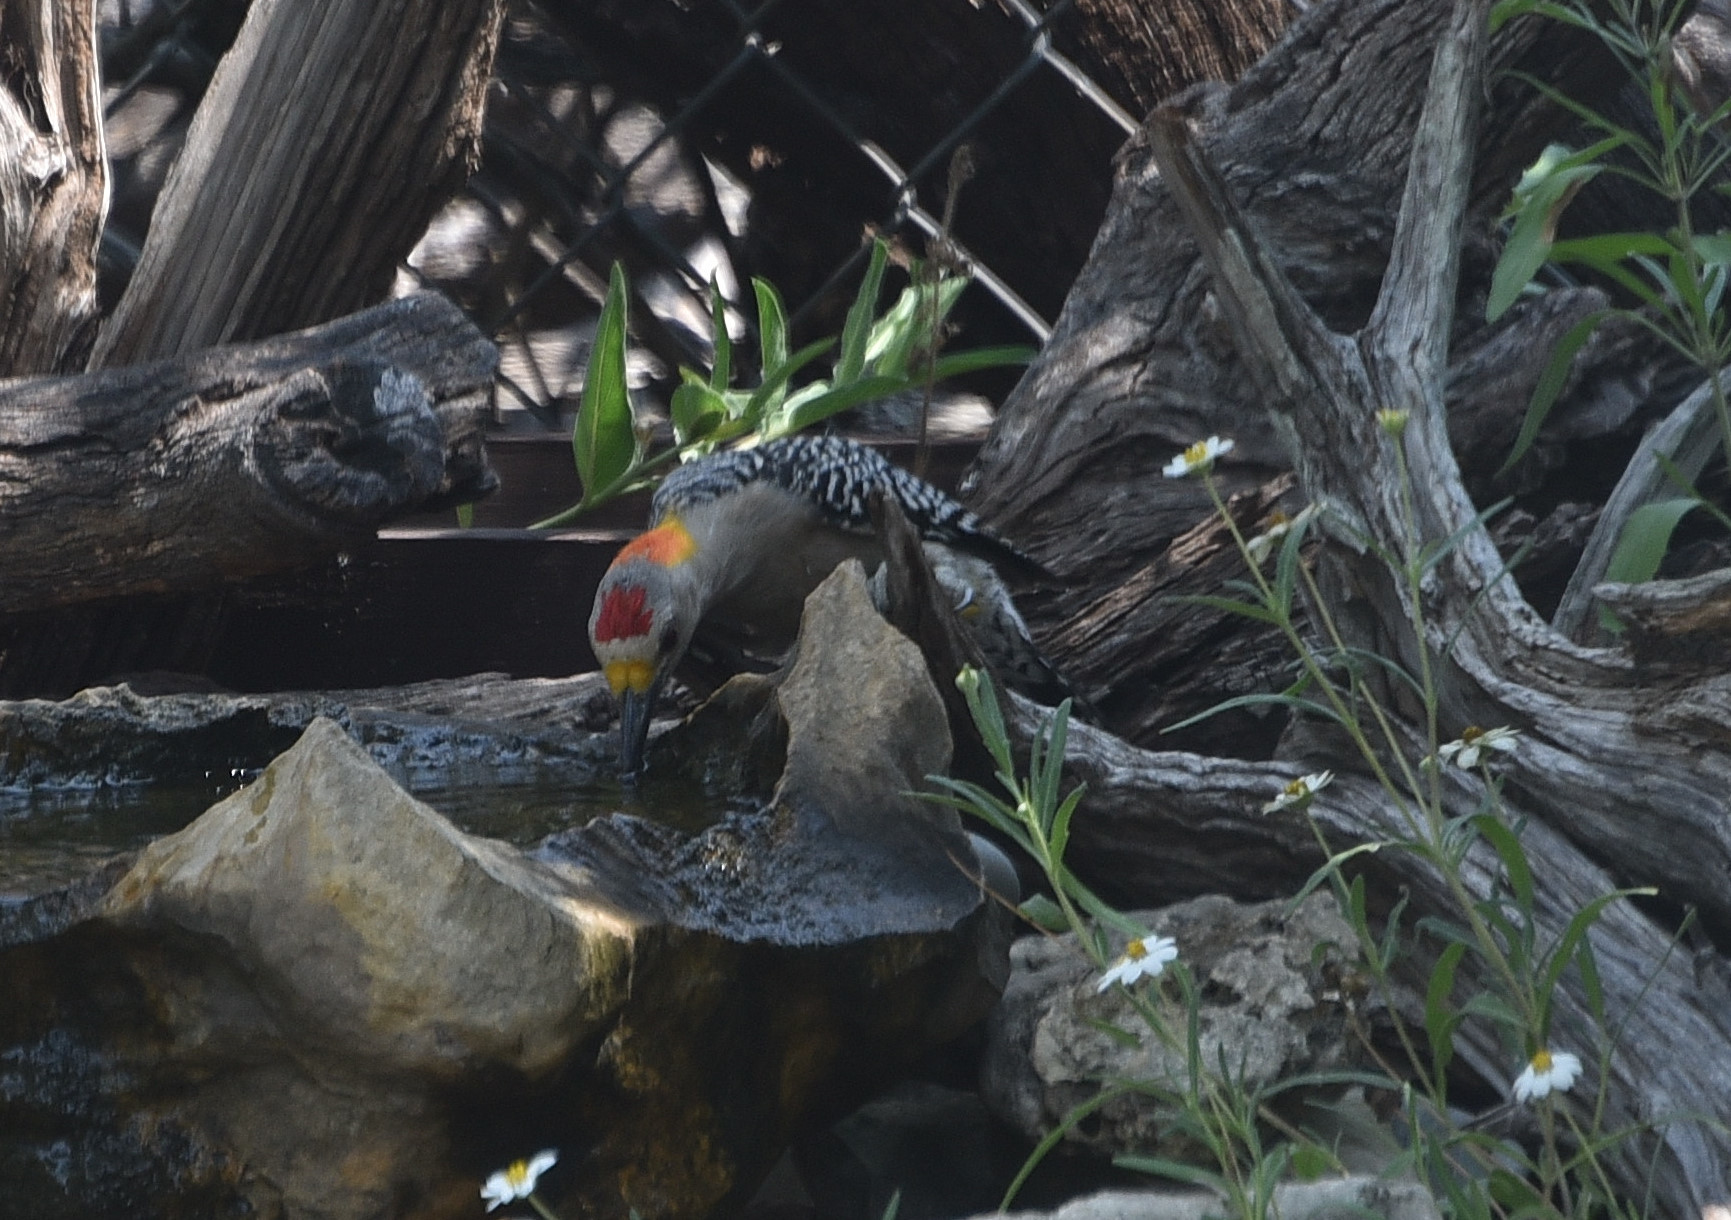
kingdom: Animalia
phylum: Chordata
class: Aves
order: Piciformes
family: Picidae
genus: Melanerpes
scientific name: Melanerpes aurifrons
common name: Golden-fronted woodpecker
